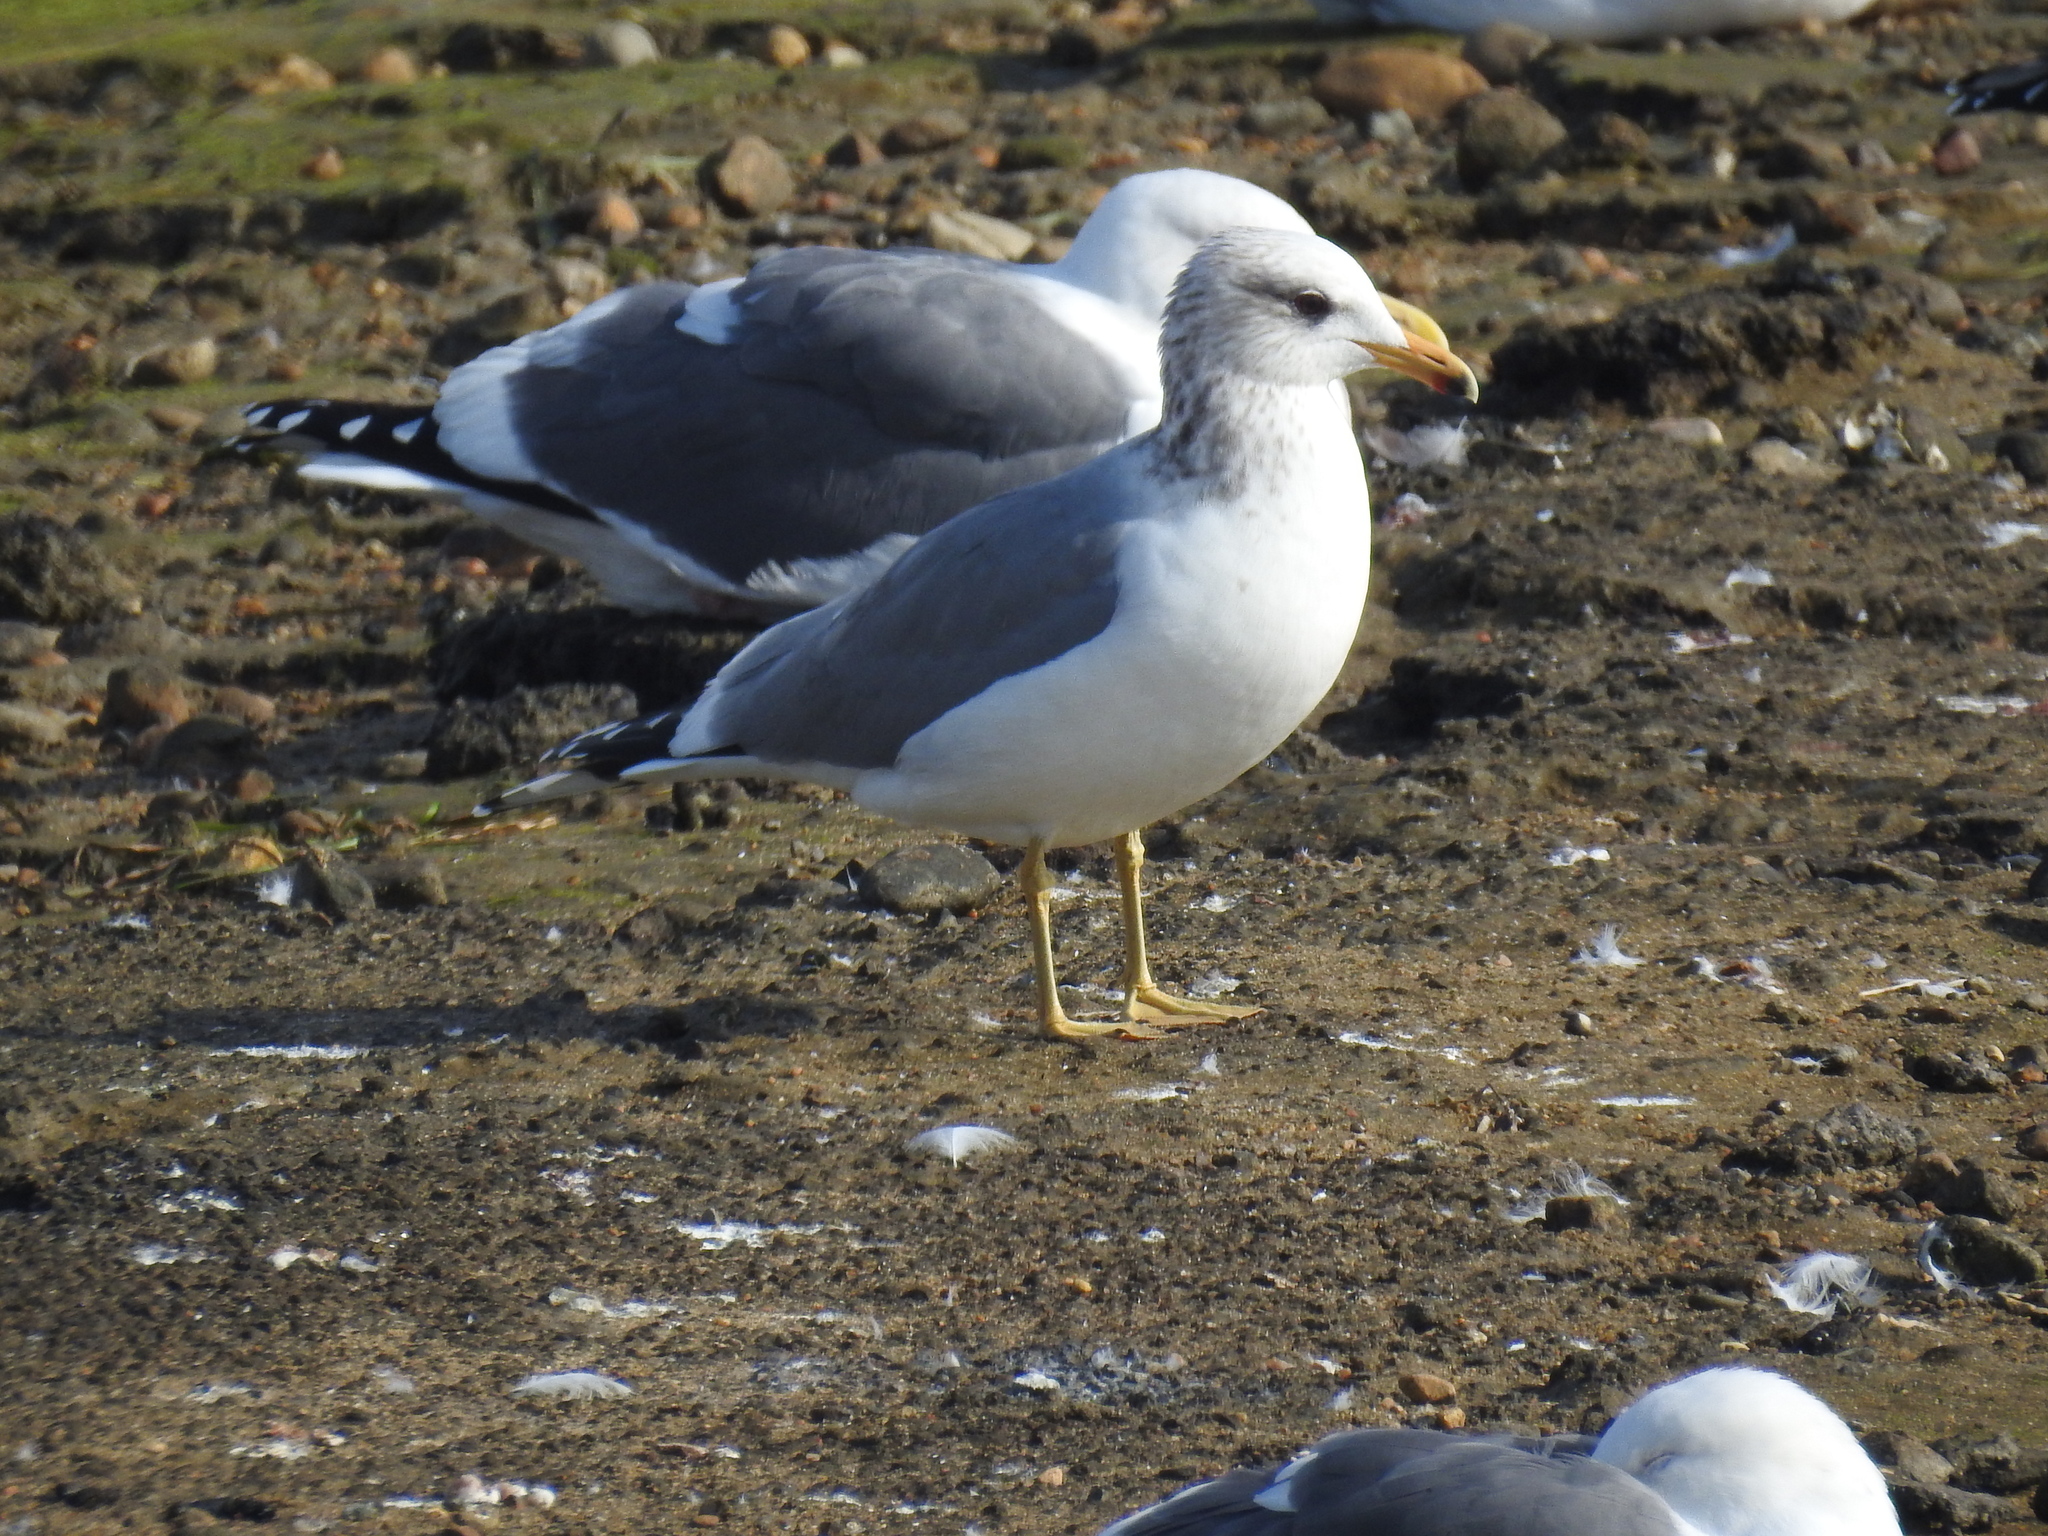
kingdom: Animalia
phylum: Chordata
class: Aves
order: Charadriiformes
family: Laridae
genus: Larus
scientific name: Larus californicus
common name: California gull
